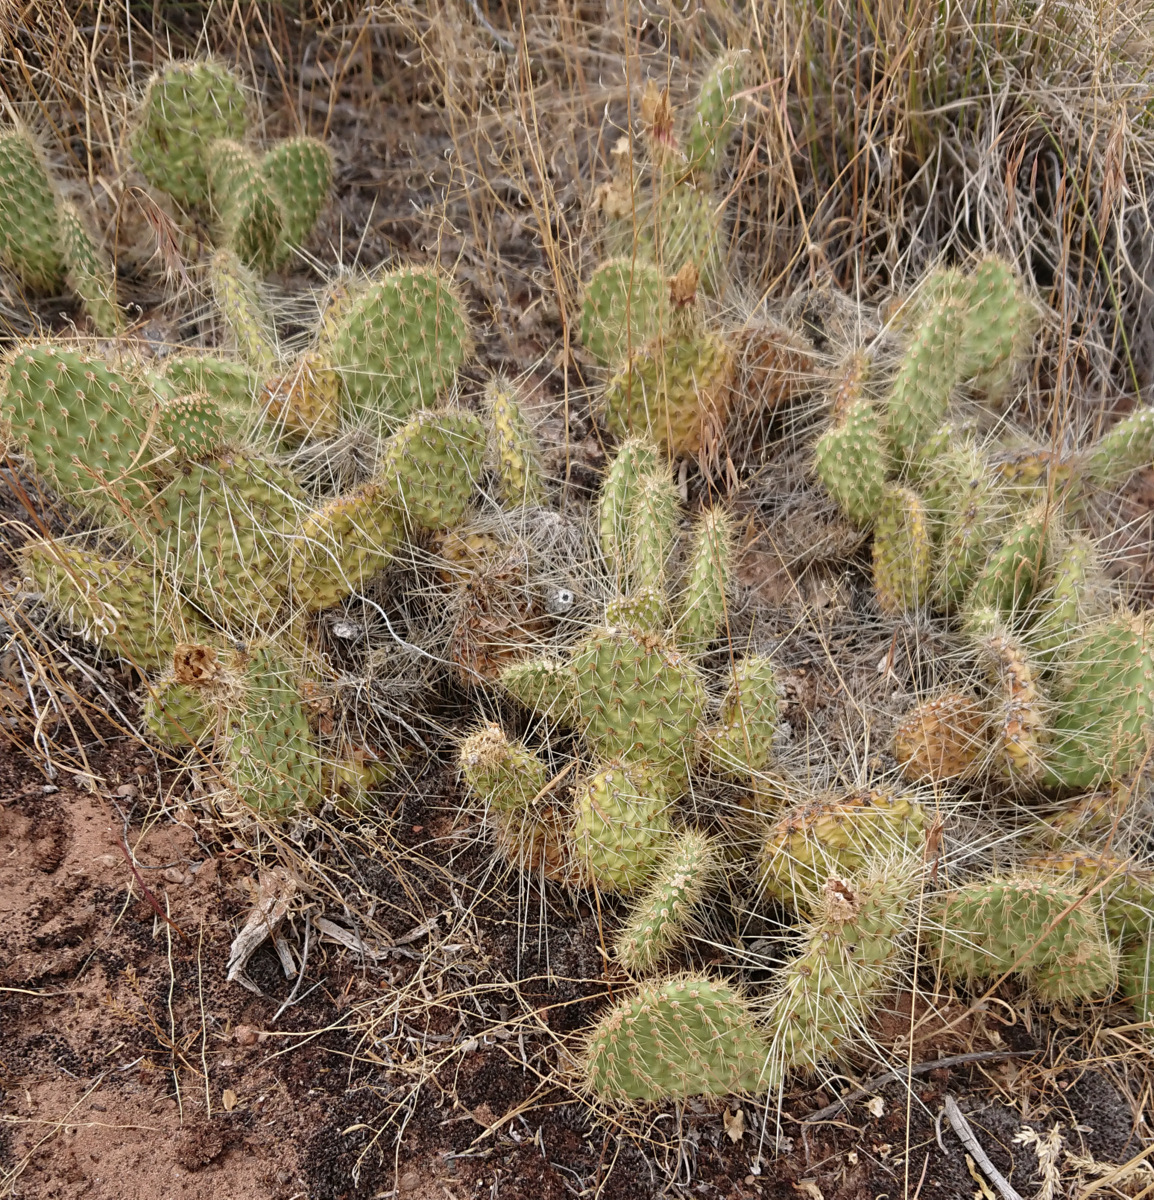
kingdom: Plantae
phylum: Tracheophyta
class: Magnoliopsida
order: Caryophyllales
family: Cactaceae
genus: Opuntia
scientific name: Opuntia polyacantha
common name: Plains prickly-pear
